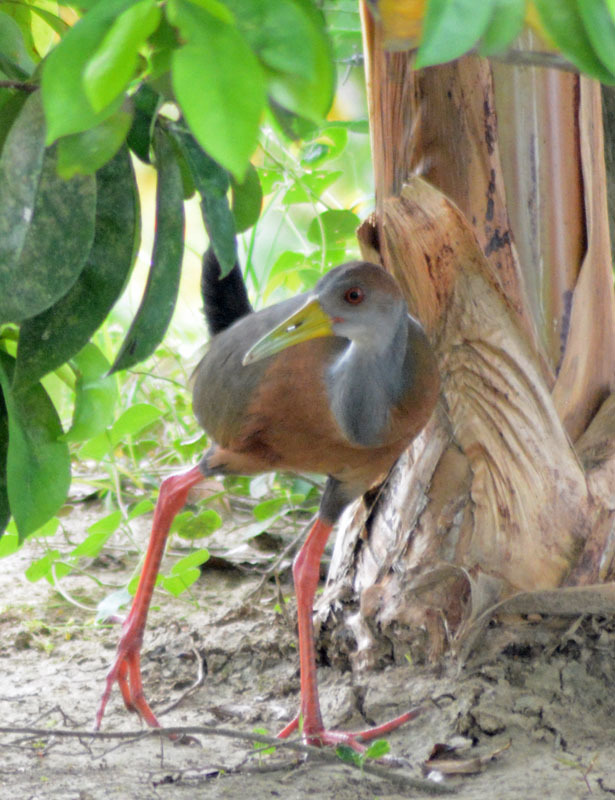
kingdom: Animalia
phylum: Chordata
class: Aves
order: Gruiformes
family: Rallidae
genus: Aramides
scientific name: Aramides albiventris
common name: Russet-naped wood-rail
